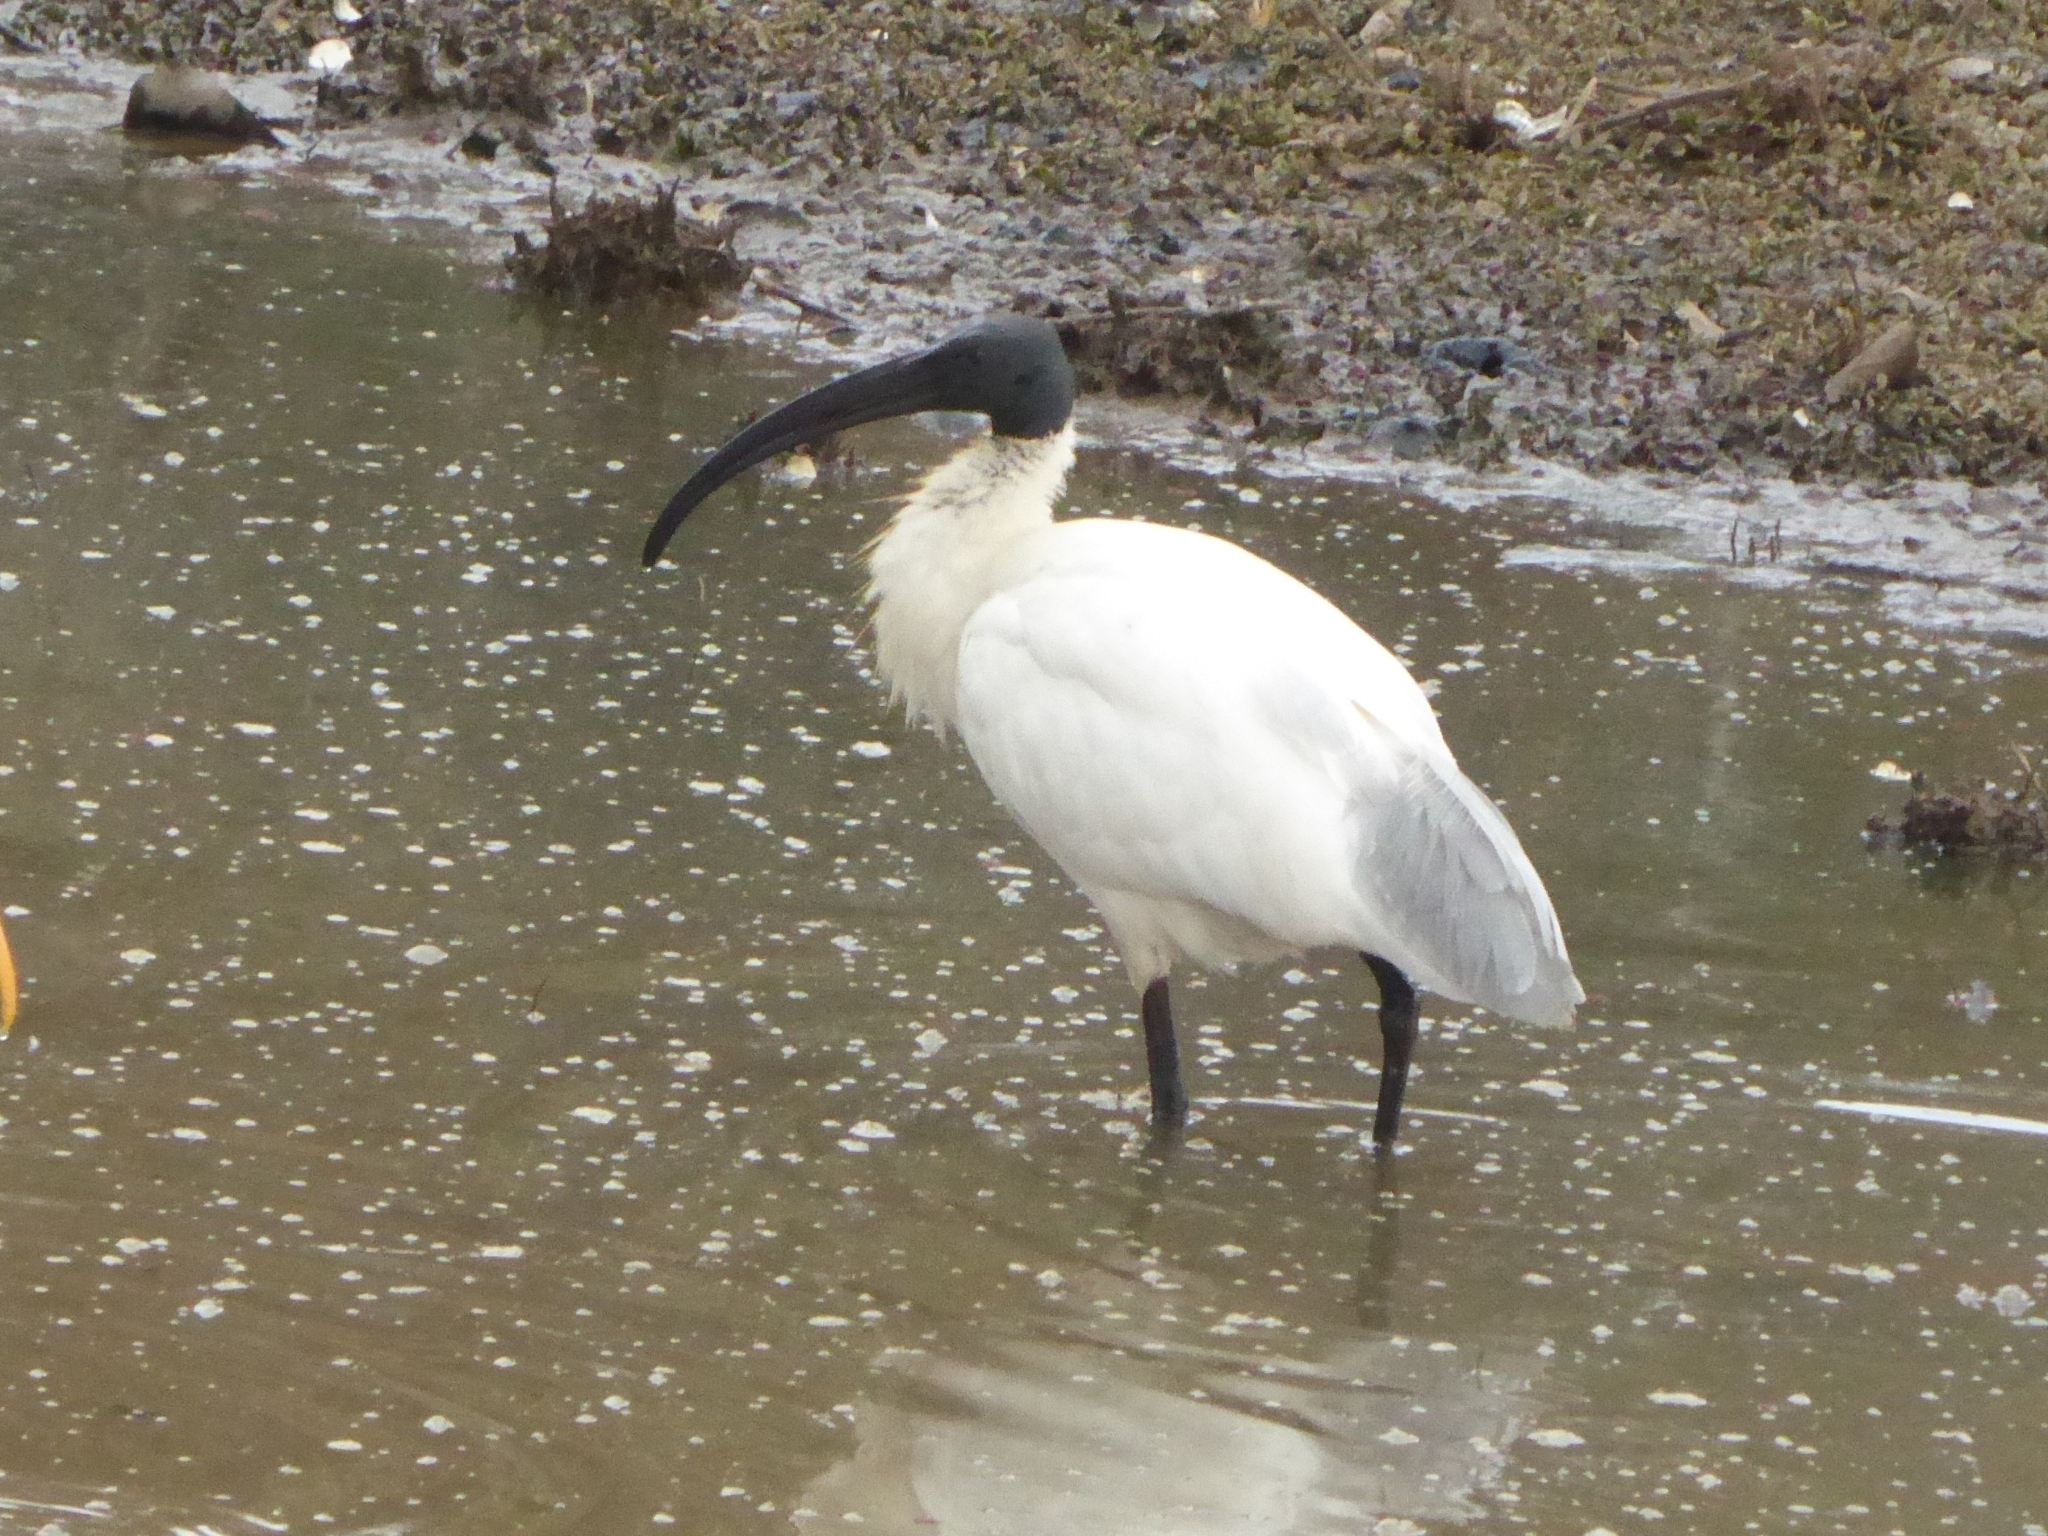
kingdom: Animalia
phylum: Chordata
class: Aves
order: Pelecaniformes
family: Threskiornithidae
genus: Threskiornis
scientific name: Threskiornis melanocephalus
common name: Black-headed ibis
